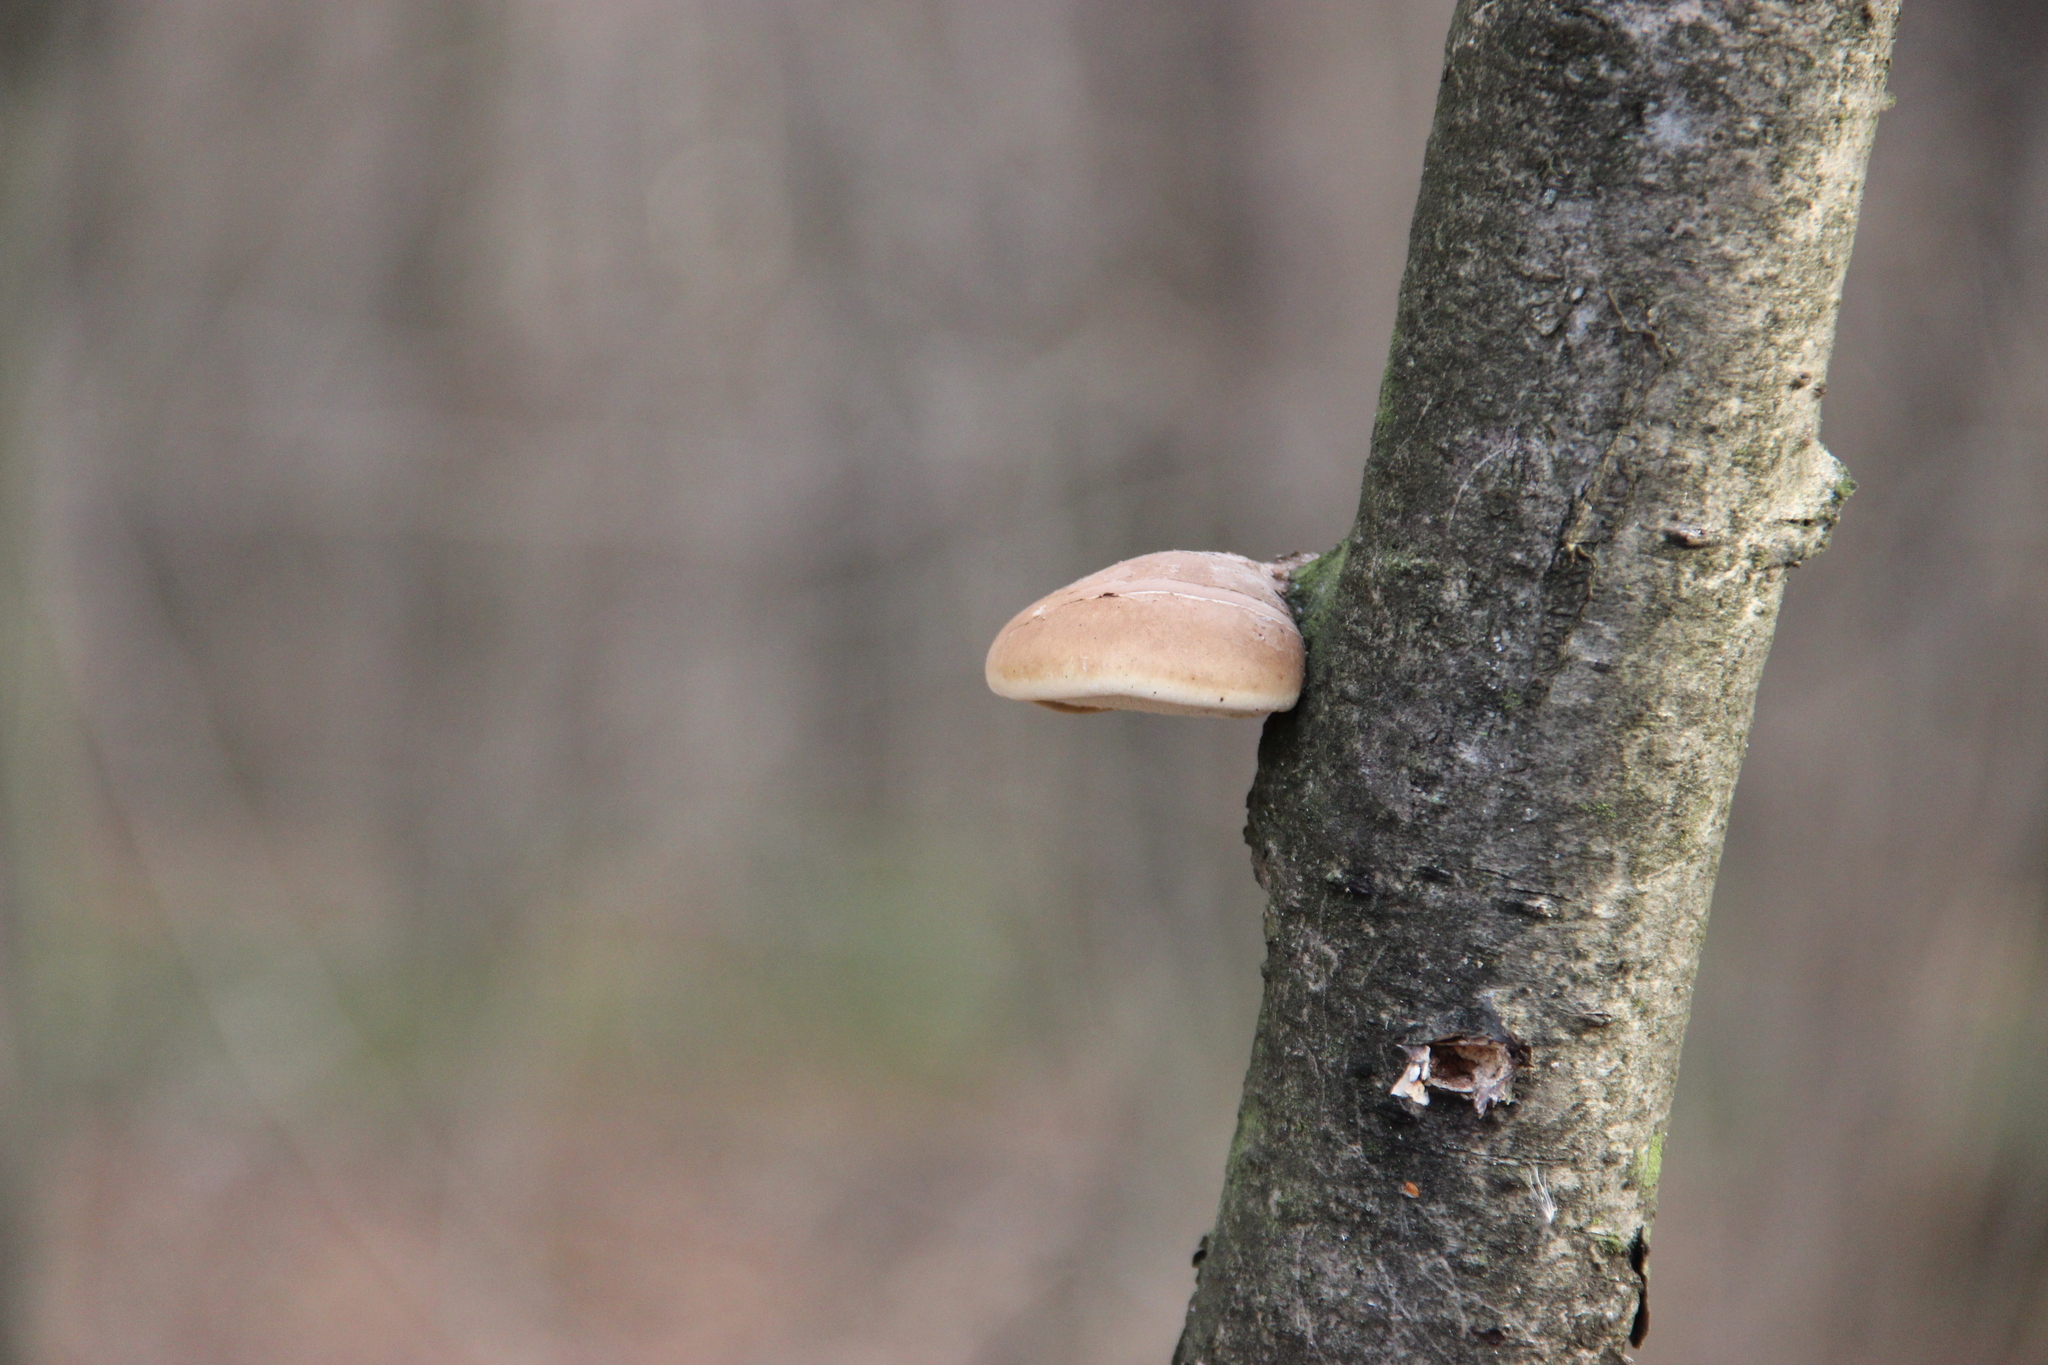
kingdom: Fungi
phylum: Basidiomycota
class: Agaricomycetes
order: Polyporales
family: Fomitopsidaceae
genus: Fomitopsis
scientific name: Fomitopsis betulina
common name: Birch polypore
